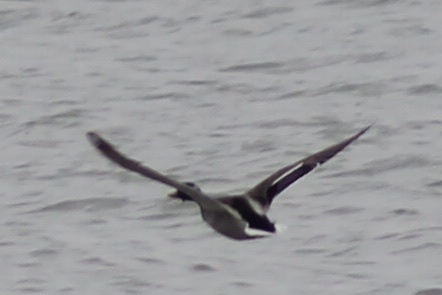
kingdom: Animalia
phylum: Chordata
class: Aves
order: Anseriformes
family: Anatidae
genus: Anas
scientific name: Anas platyrhynchos
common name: Mallard
